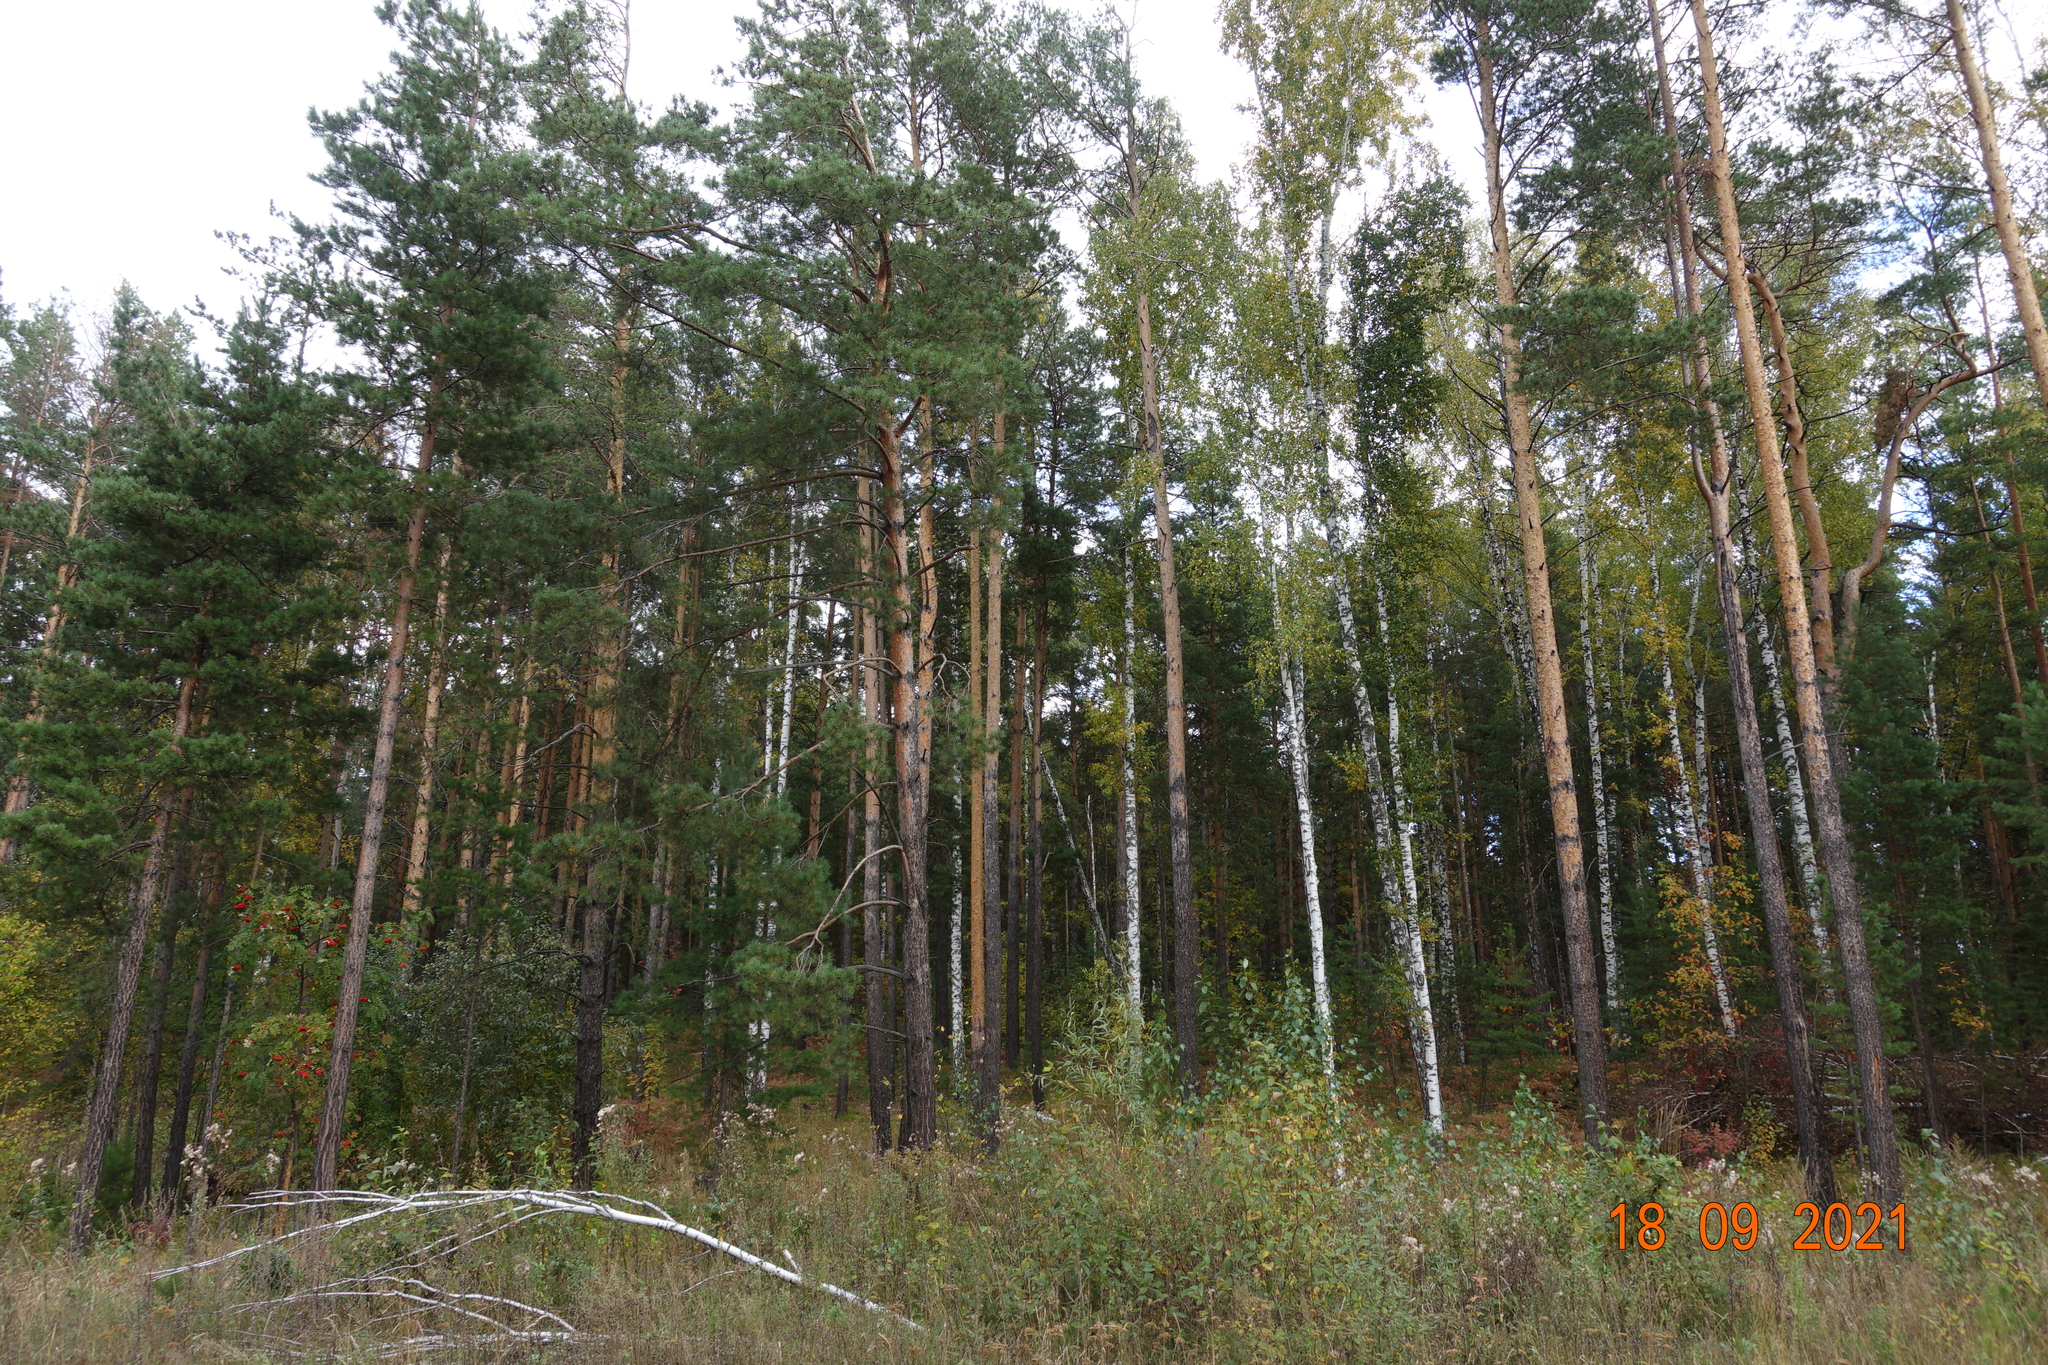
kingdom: Plantae
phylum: Tracheophyta
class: Pinopsida
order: Pinales
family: Pinaceae
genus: Pinus
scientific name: Pinus sylvestris
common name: Scots pine
